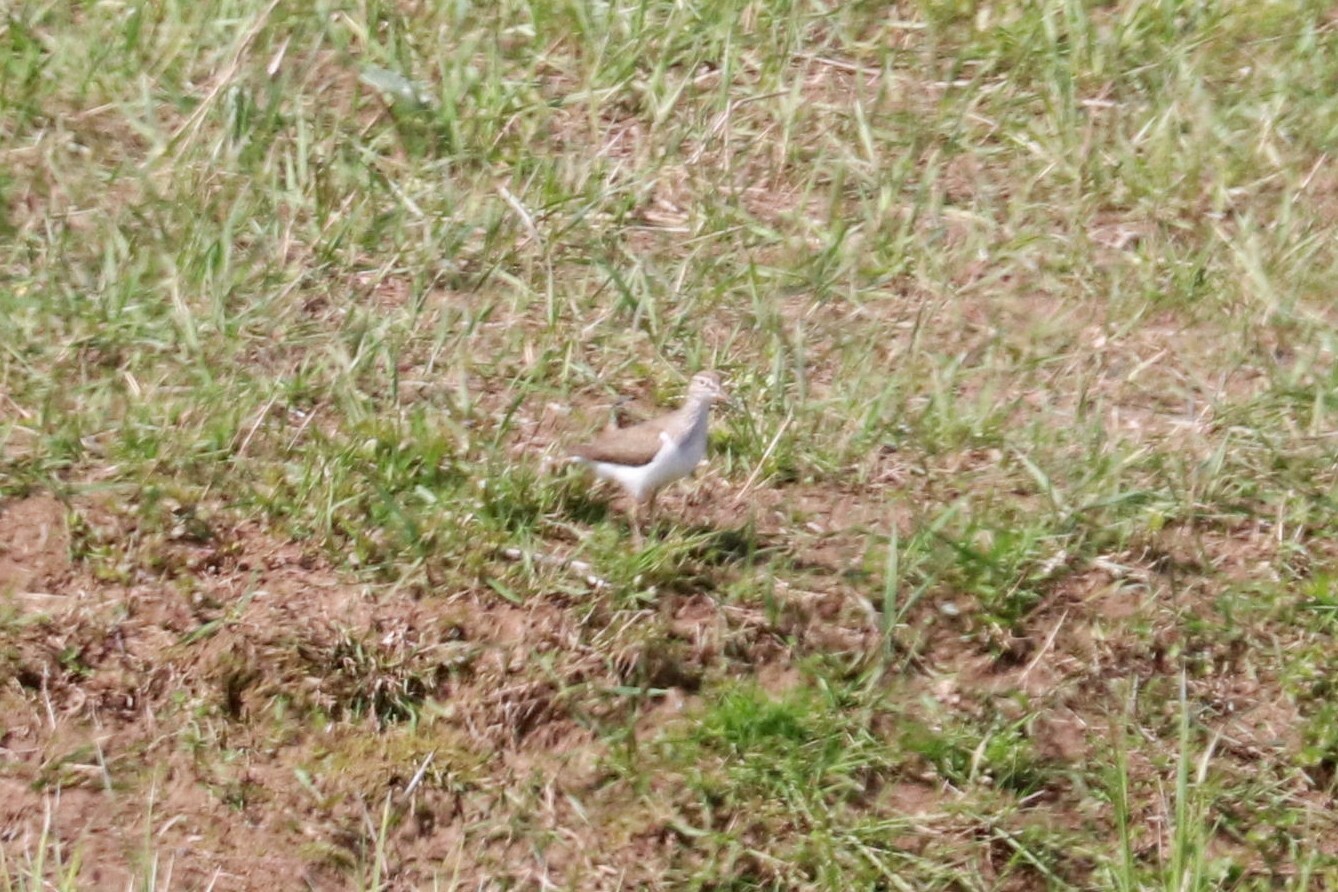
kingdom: Animalia
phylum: Chordata
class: Aves
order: Charadriiformes
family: Scolopacidae
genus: Actitis
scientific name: Actitis hypoleucos
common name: Common sandpiper
